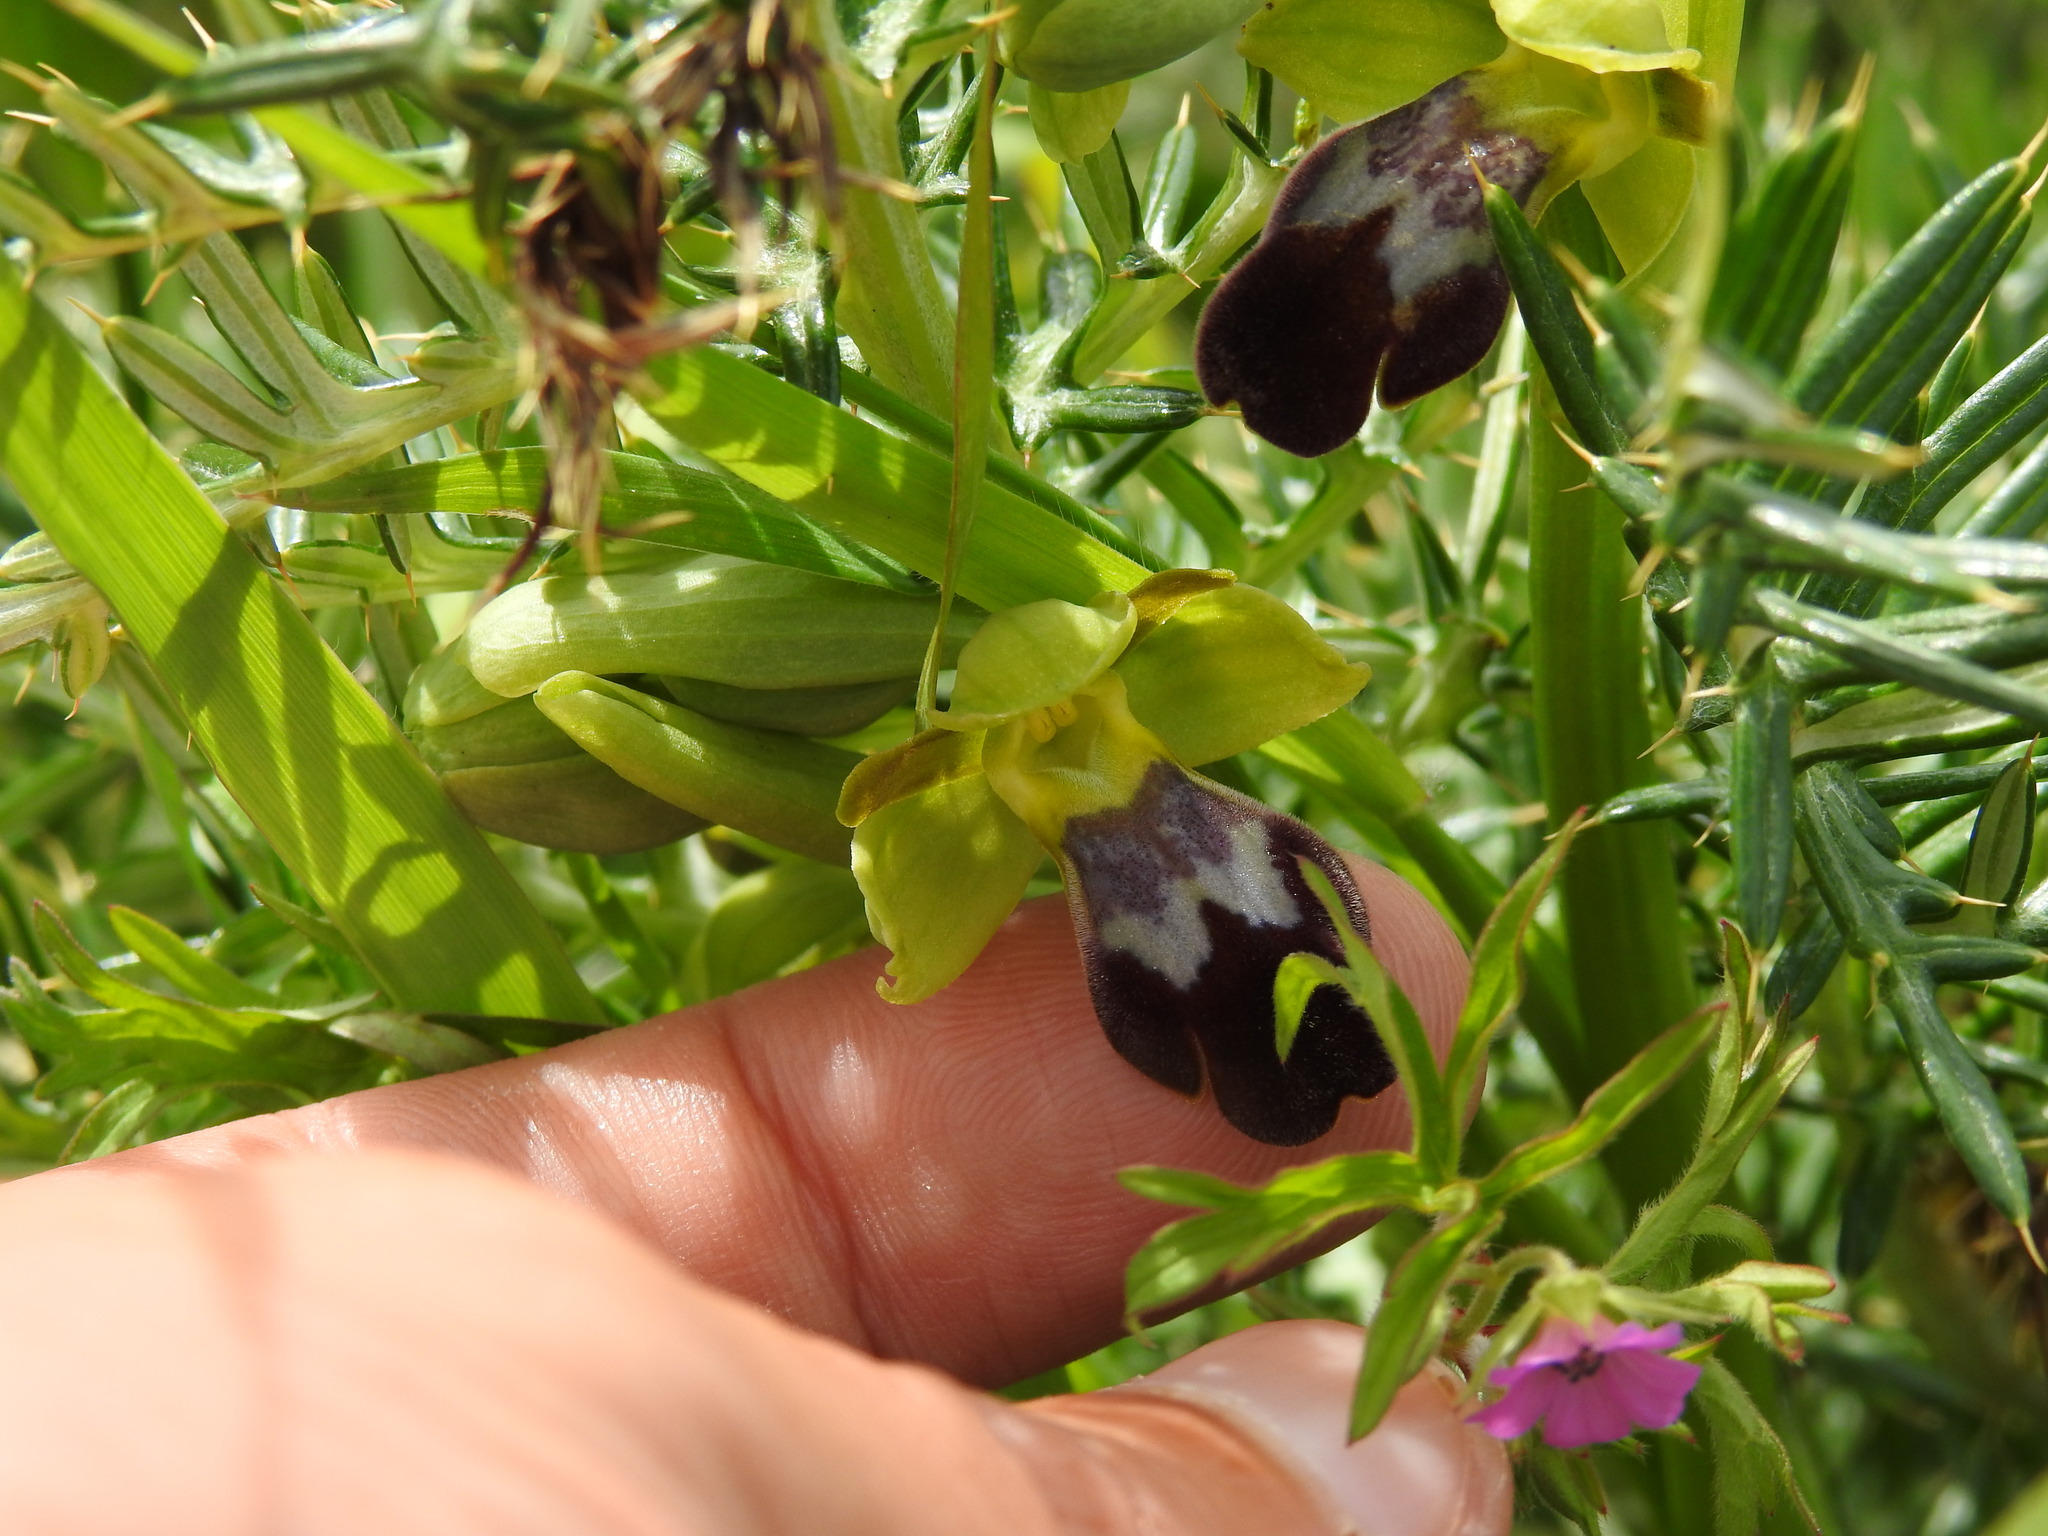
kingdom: Plantae
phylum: Tracheophyta
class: Liliopsida
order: Asparagales
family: Orchidaceae
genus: Ophrys
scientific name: Ophrys fusca
